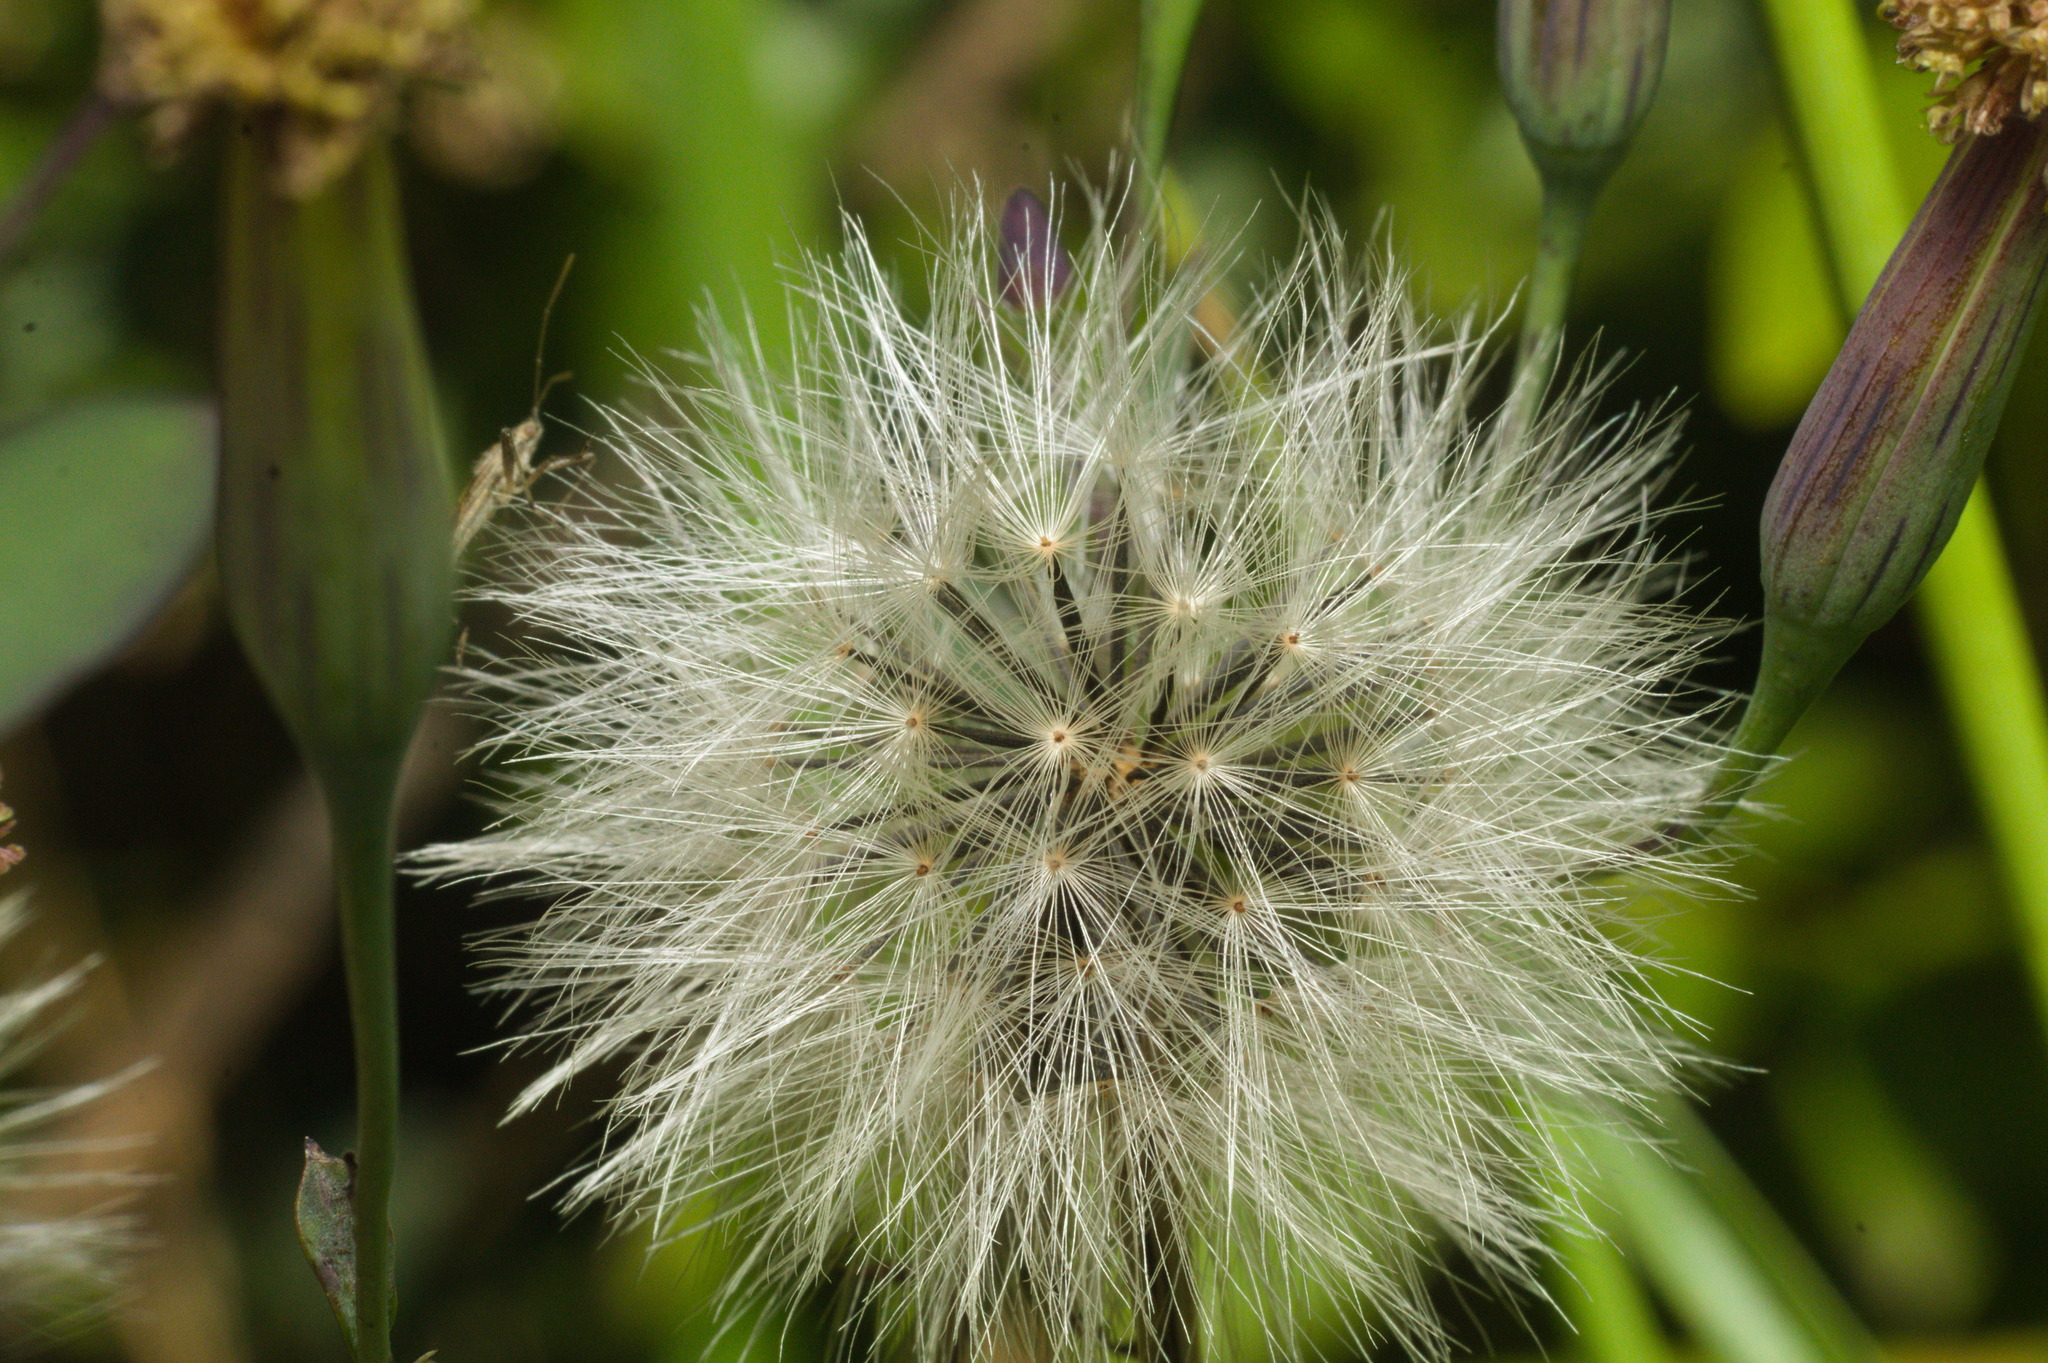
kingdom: Plantae
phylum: Tracheophyta
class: Magnoliopsida
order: Asterales
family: Asteraceae
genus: Porophyllum
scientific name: Porophyllum ruderale
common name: Yerba porosa
